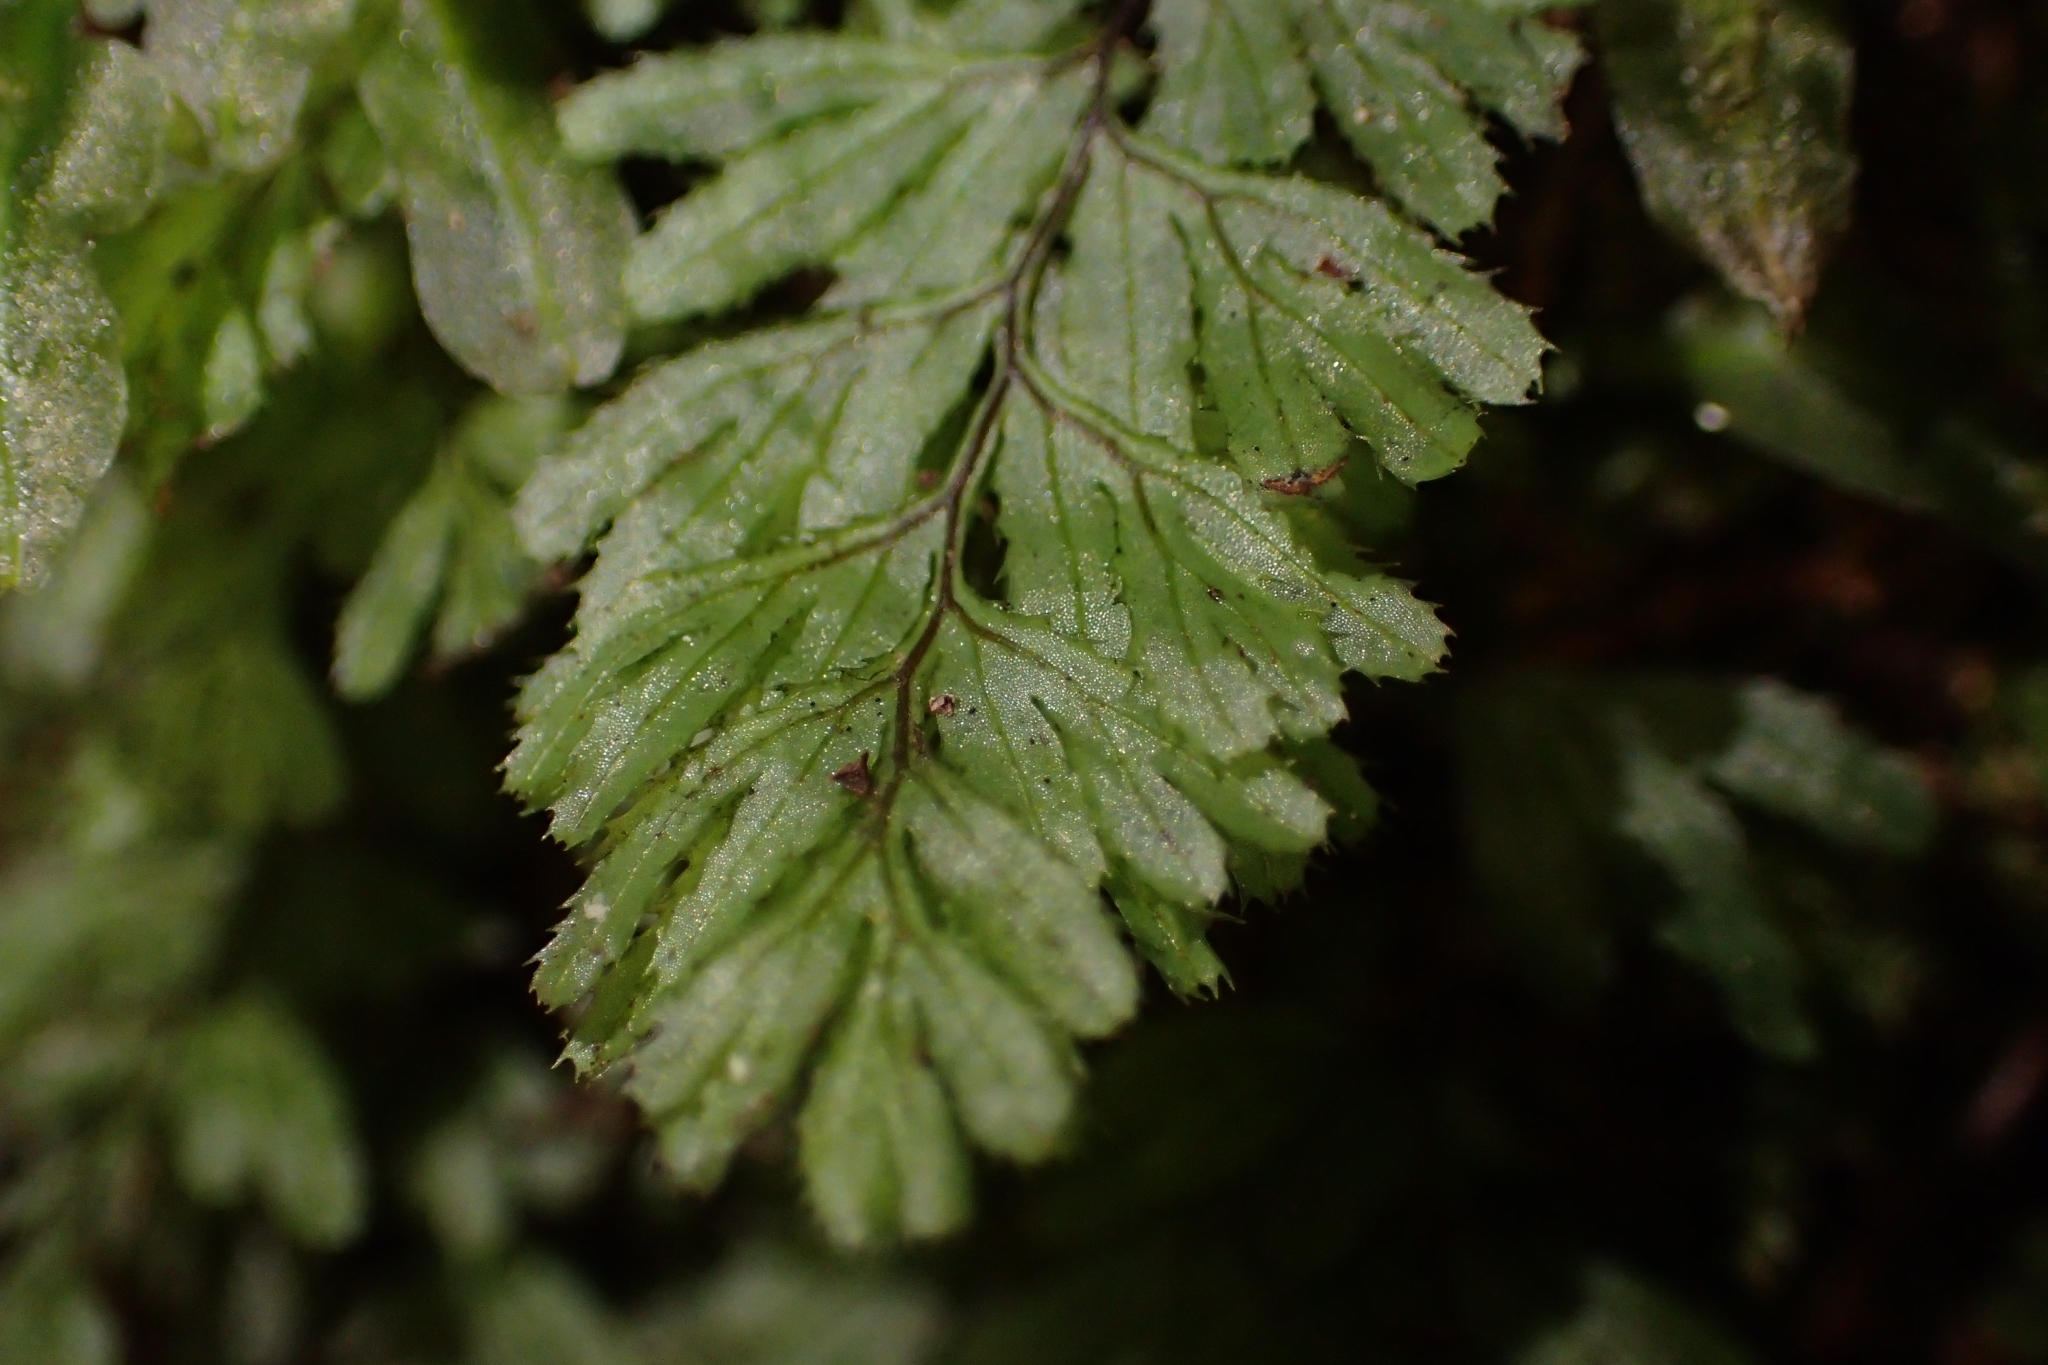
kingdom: Plantae
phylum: Tracheophyta
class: Polypodiopsida
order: Hymenophyllales
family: Hymenophyllaceae
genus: Hymenophyllum
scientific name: Hymenophyllum revolutum
